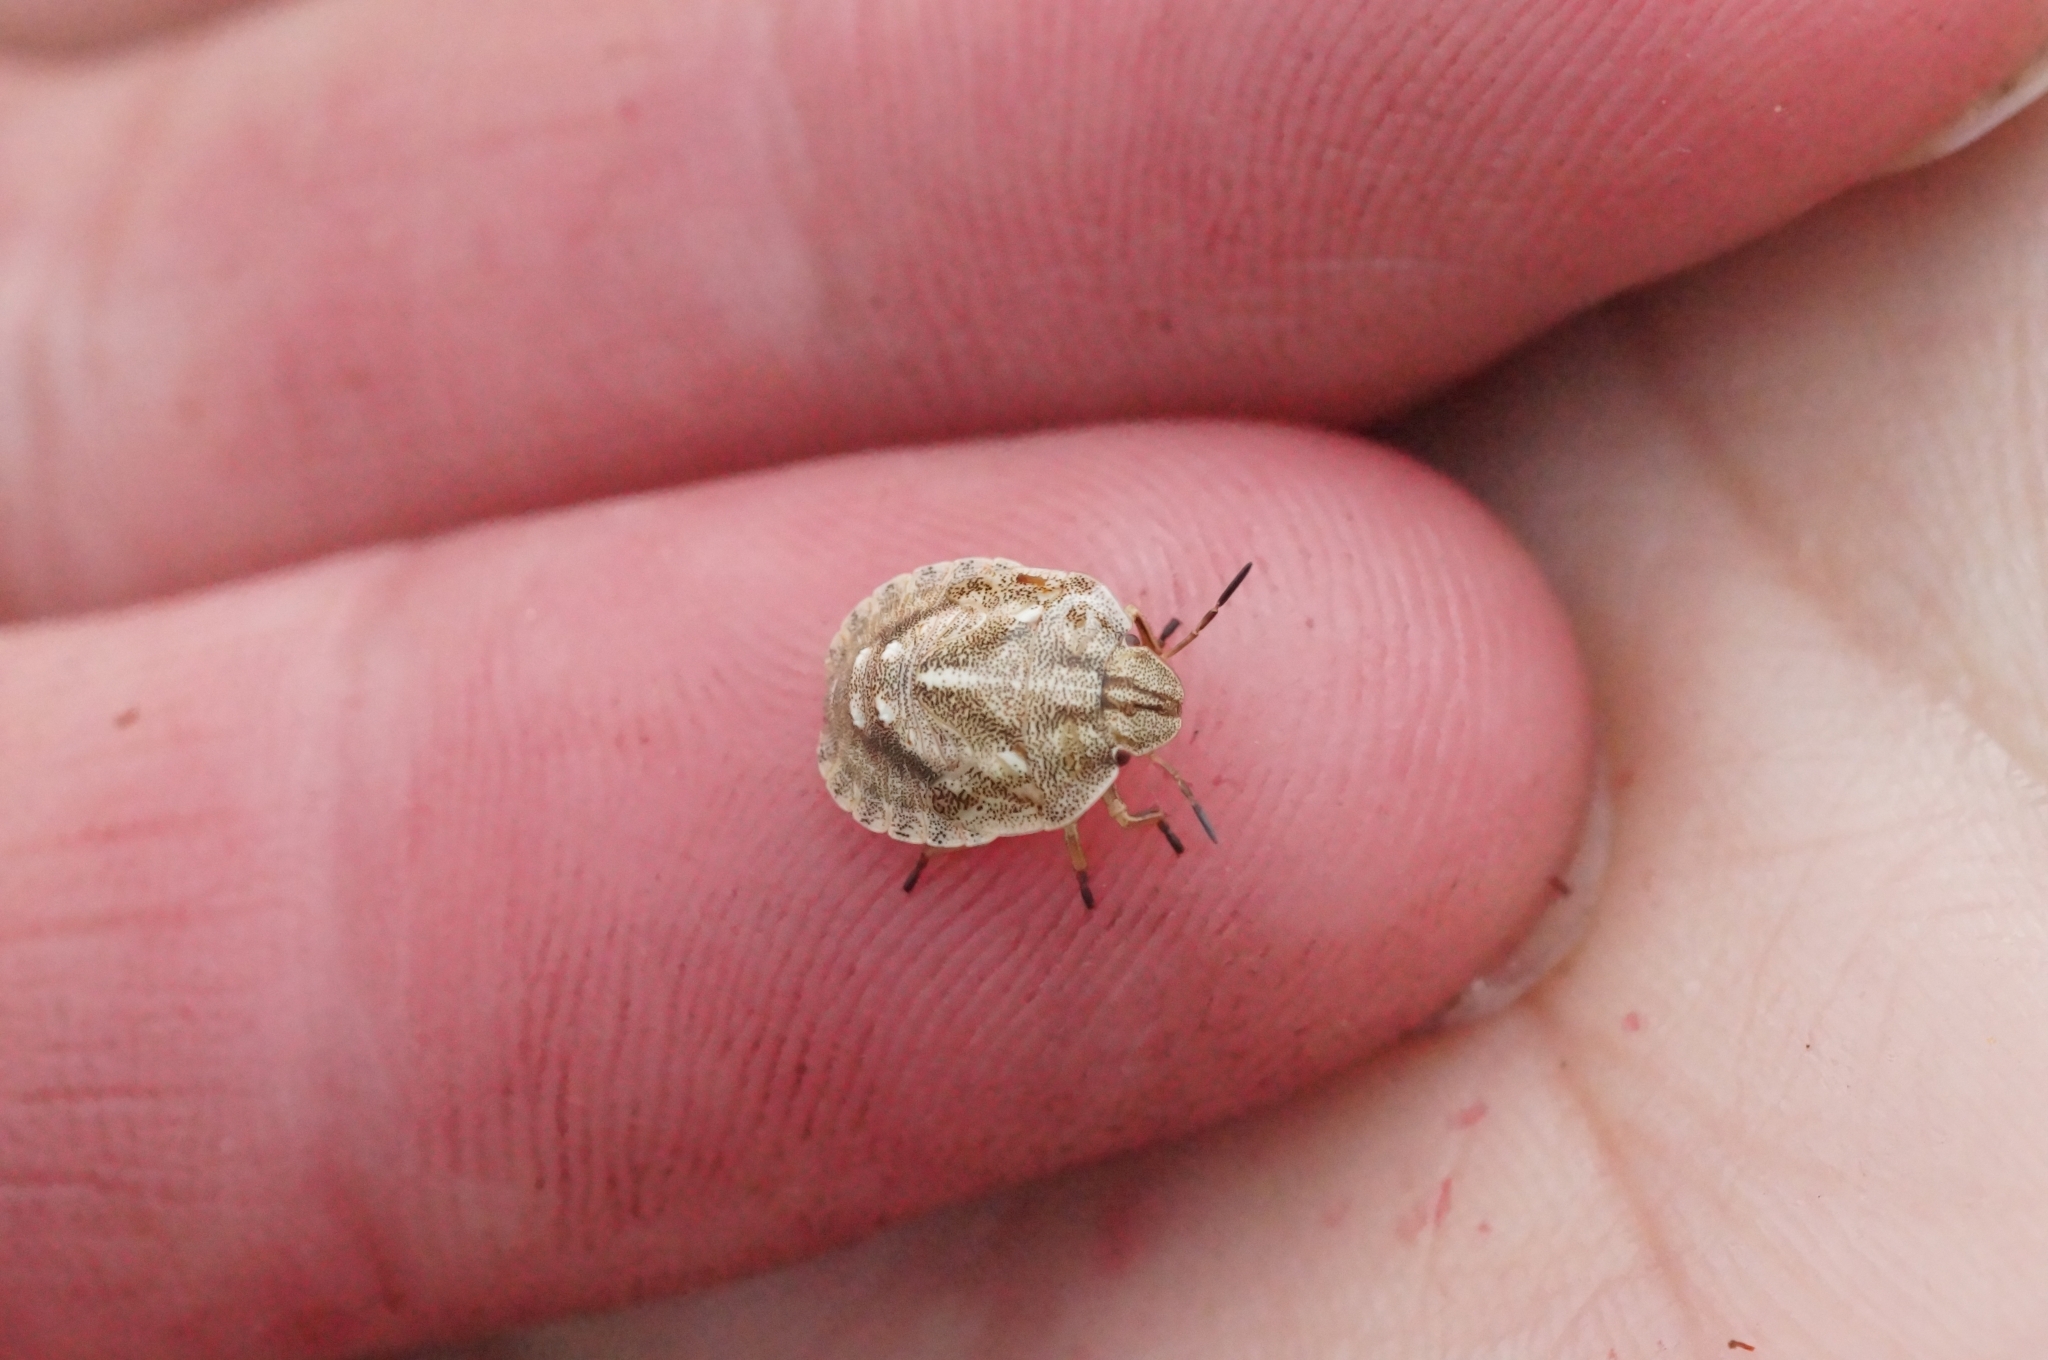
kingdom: Animalia
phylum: Arthropoda
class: Insecta
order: Hemiptera
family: Scutelleridae
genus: Eurygaster
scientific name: Eurygaster testudinaria
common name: Tortoise bug
